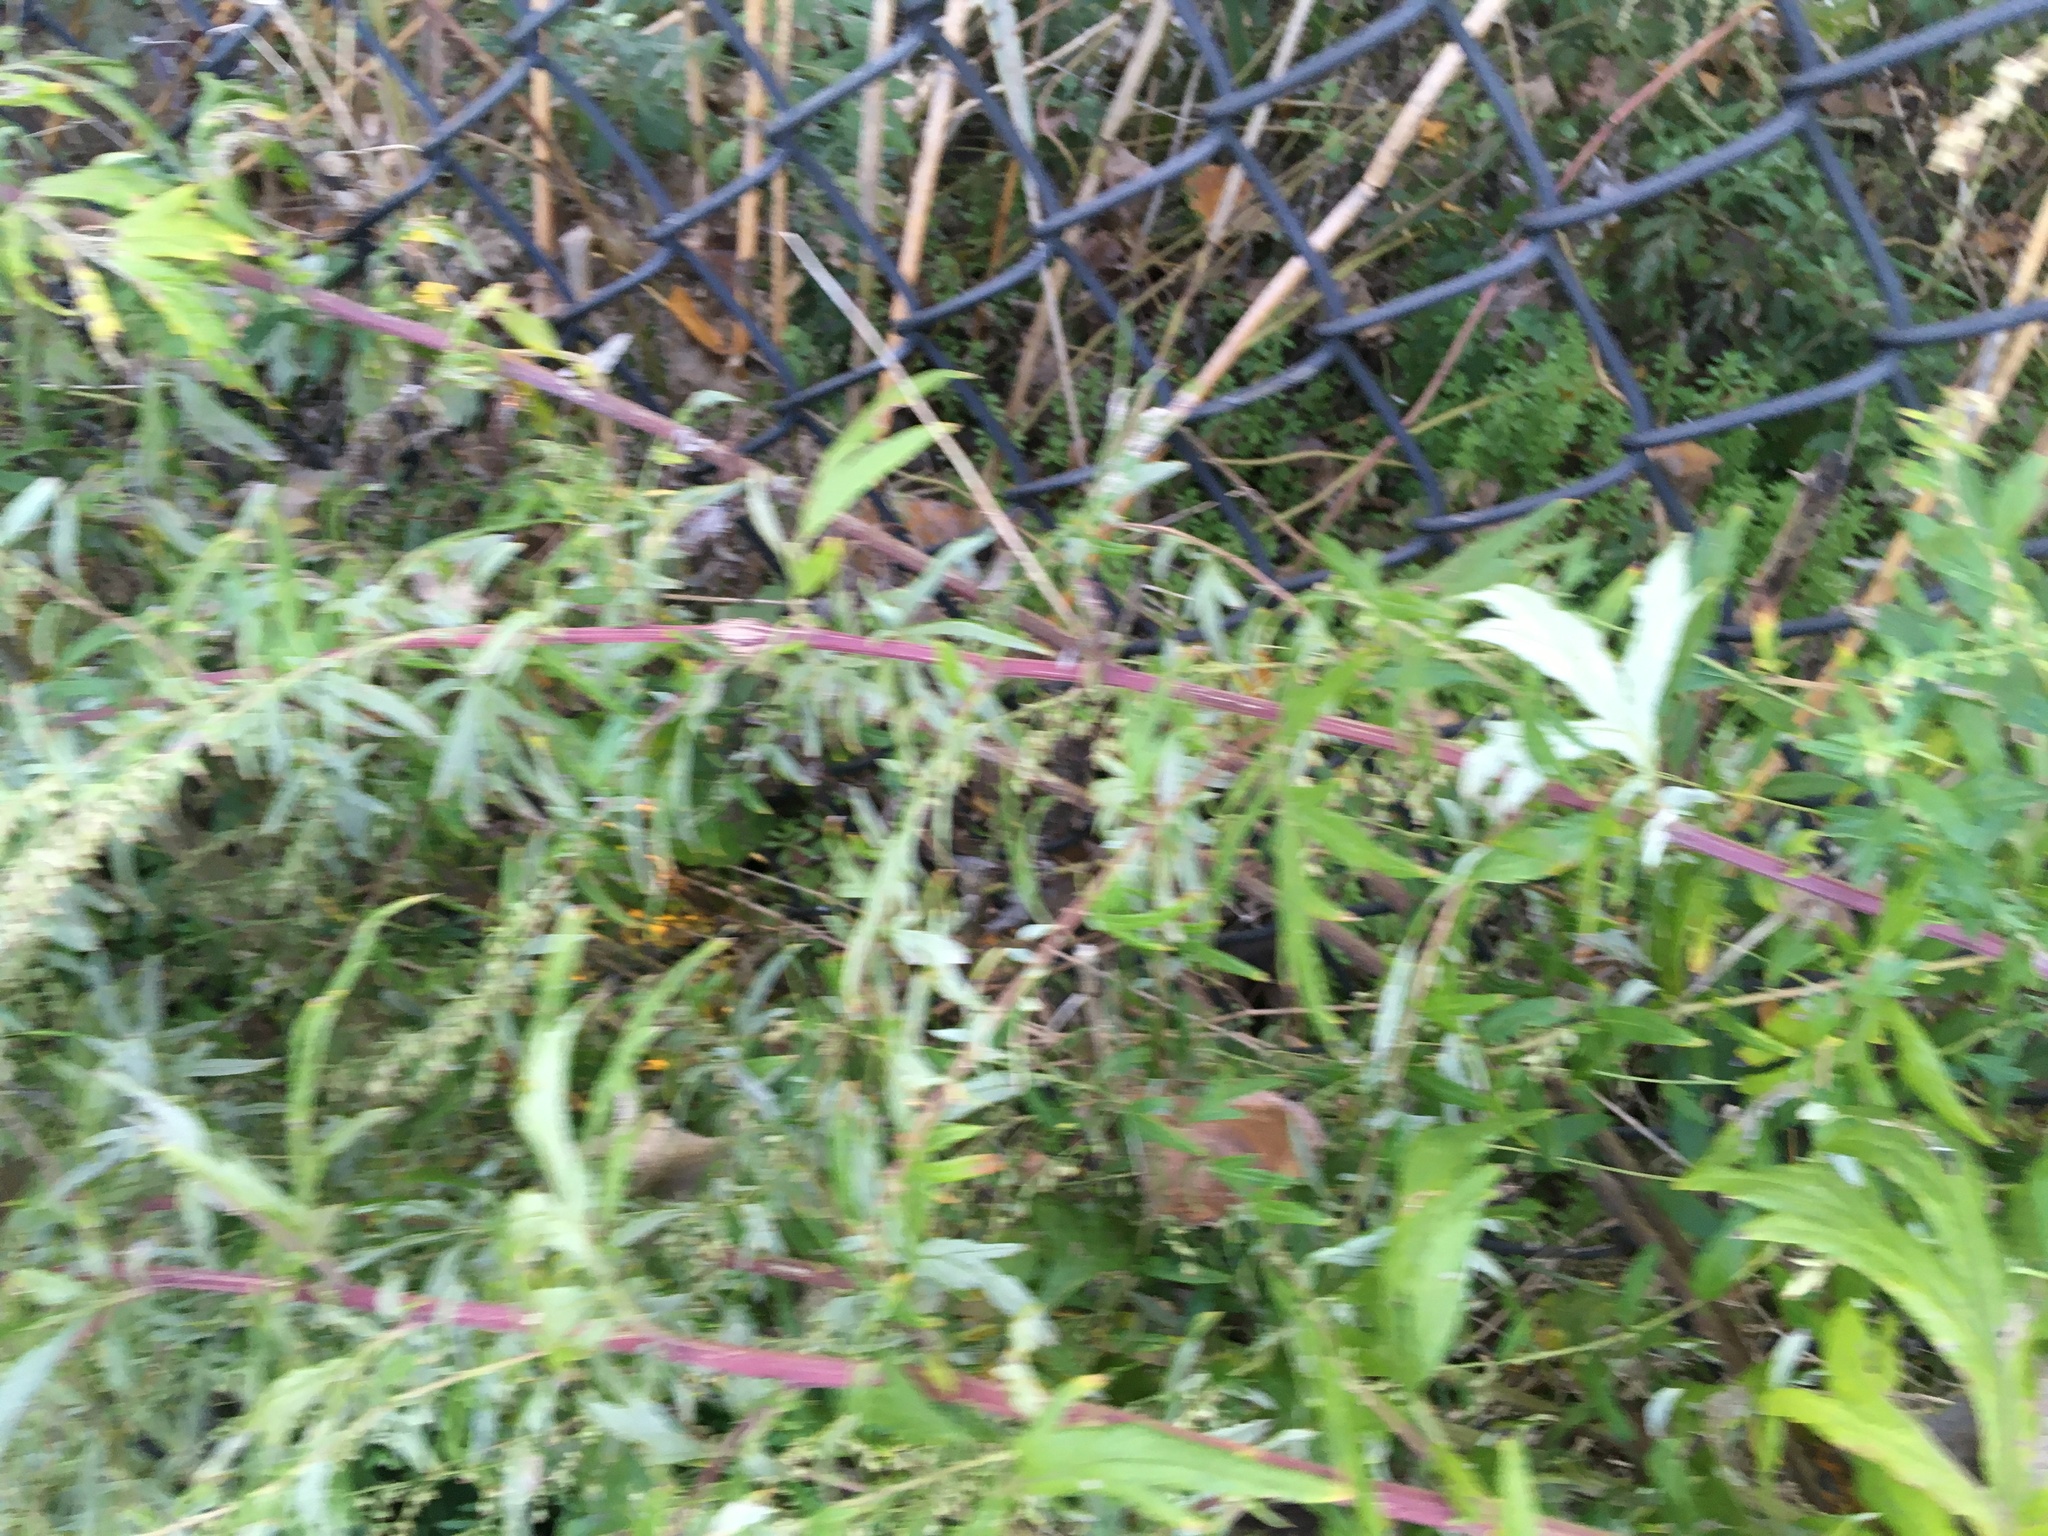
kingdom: Plantae
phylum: Tracheophyta
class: Magnoliopsida
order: Asterales
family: Asteraceae
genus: Artemisia
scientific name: Artemisia vulgaris
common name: Mugwort
